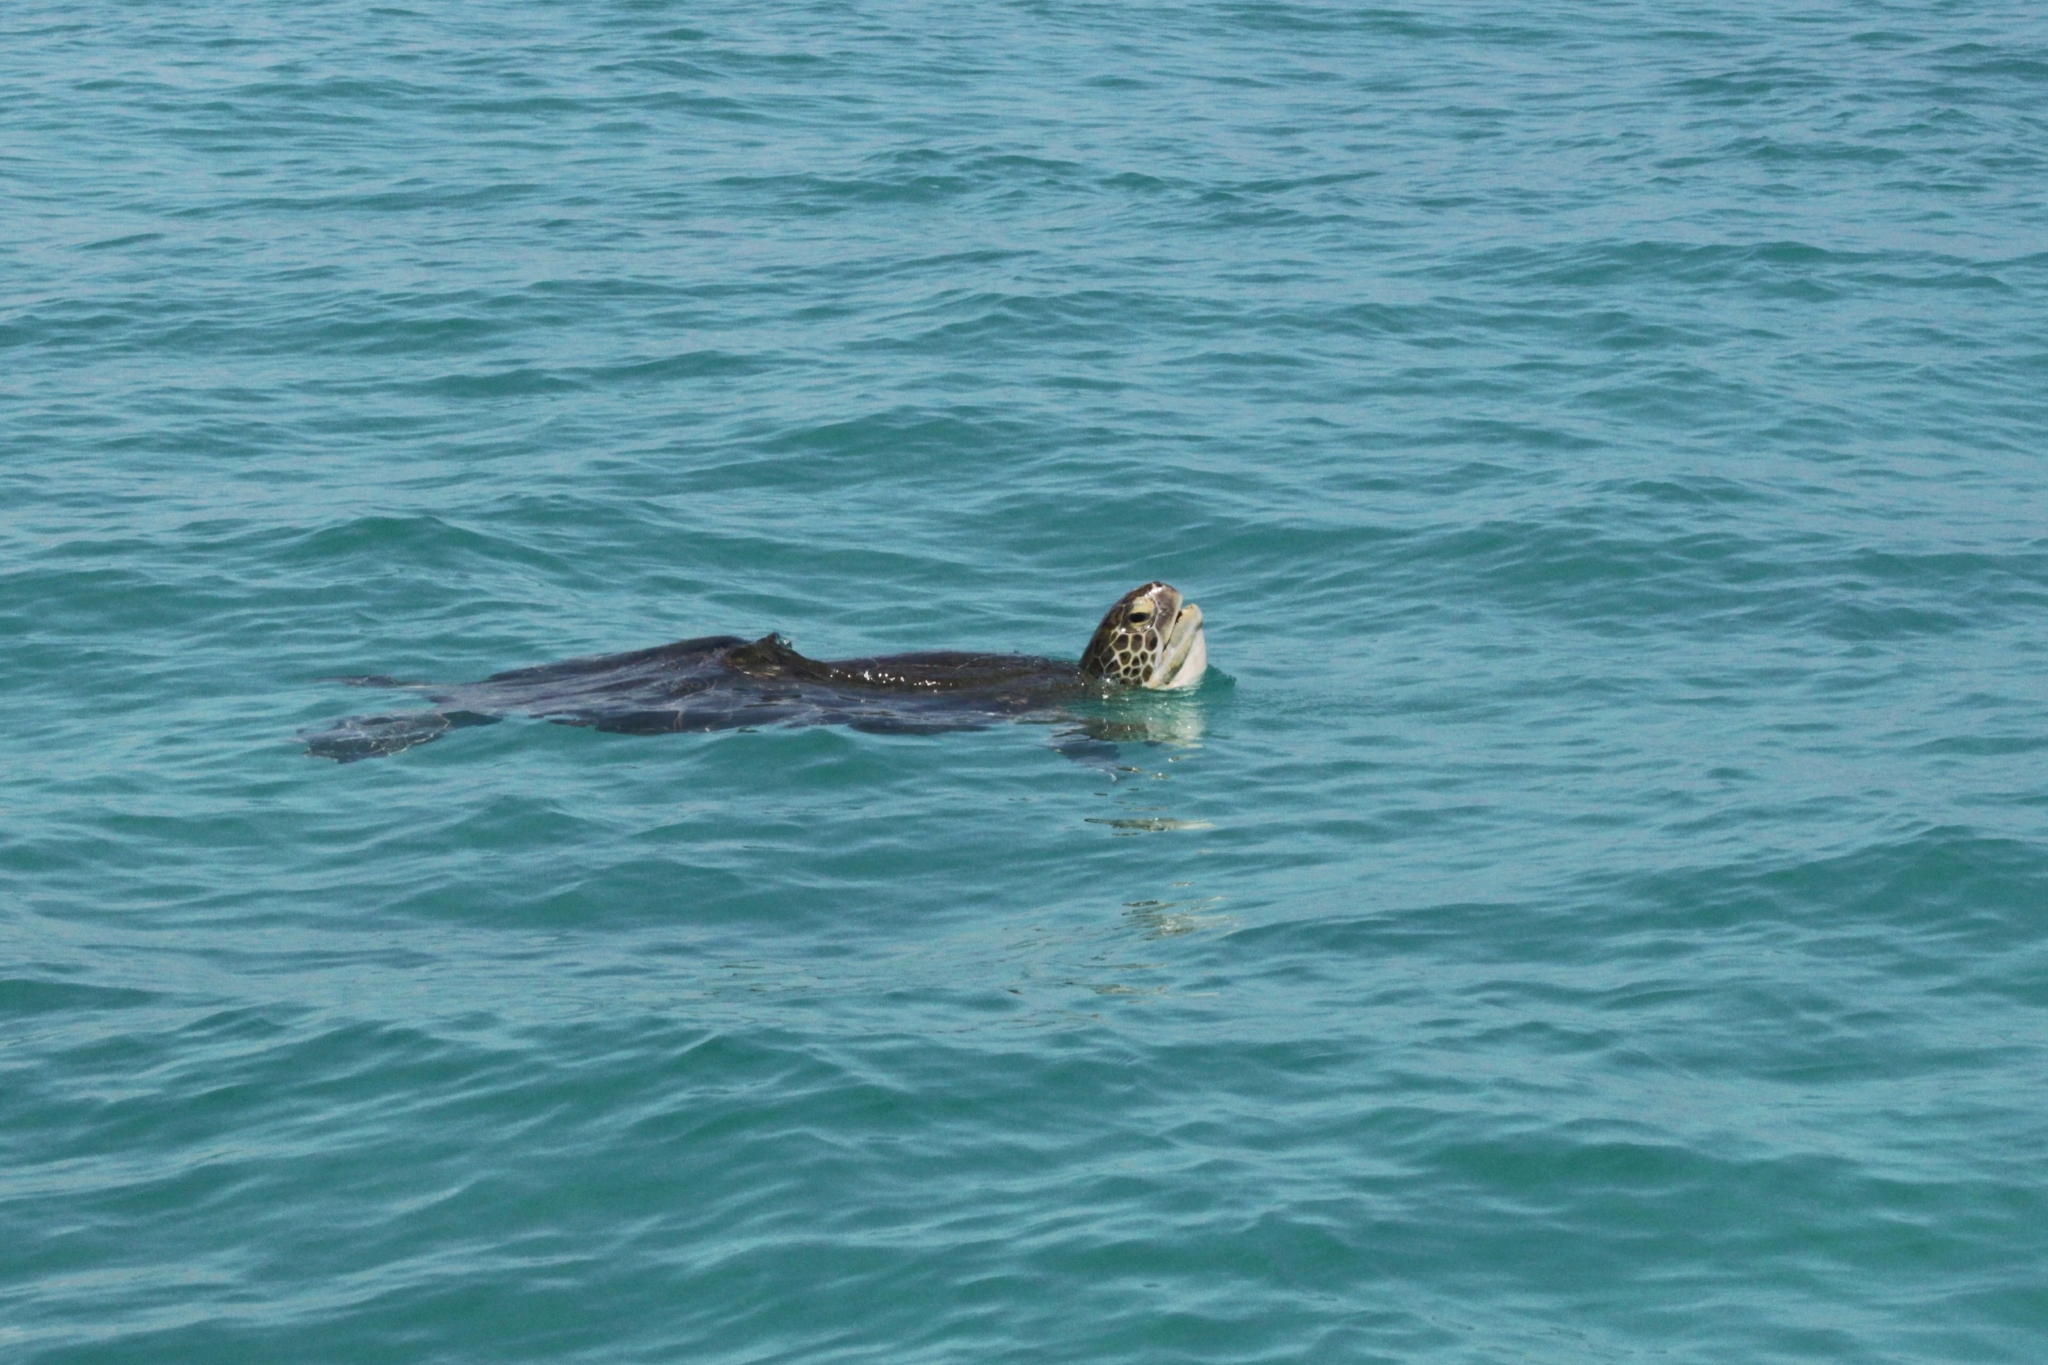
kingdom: Animalia
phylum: Chordata
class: Testudines
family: Cheloniidae
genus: Chelonia
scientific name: Chelonia mydas
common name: Green turtle
